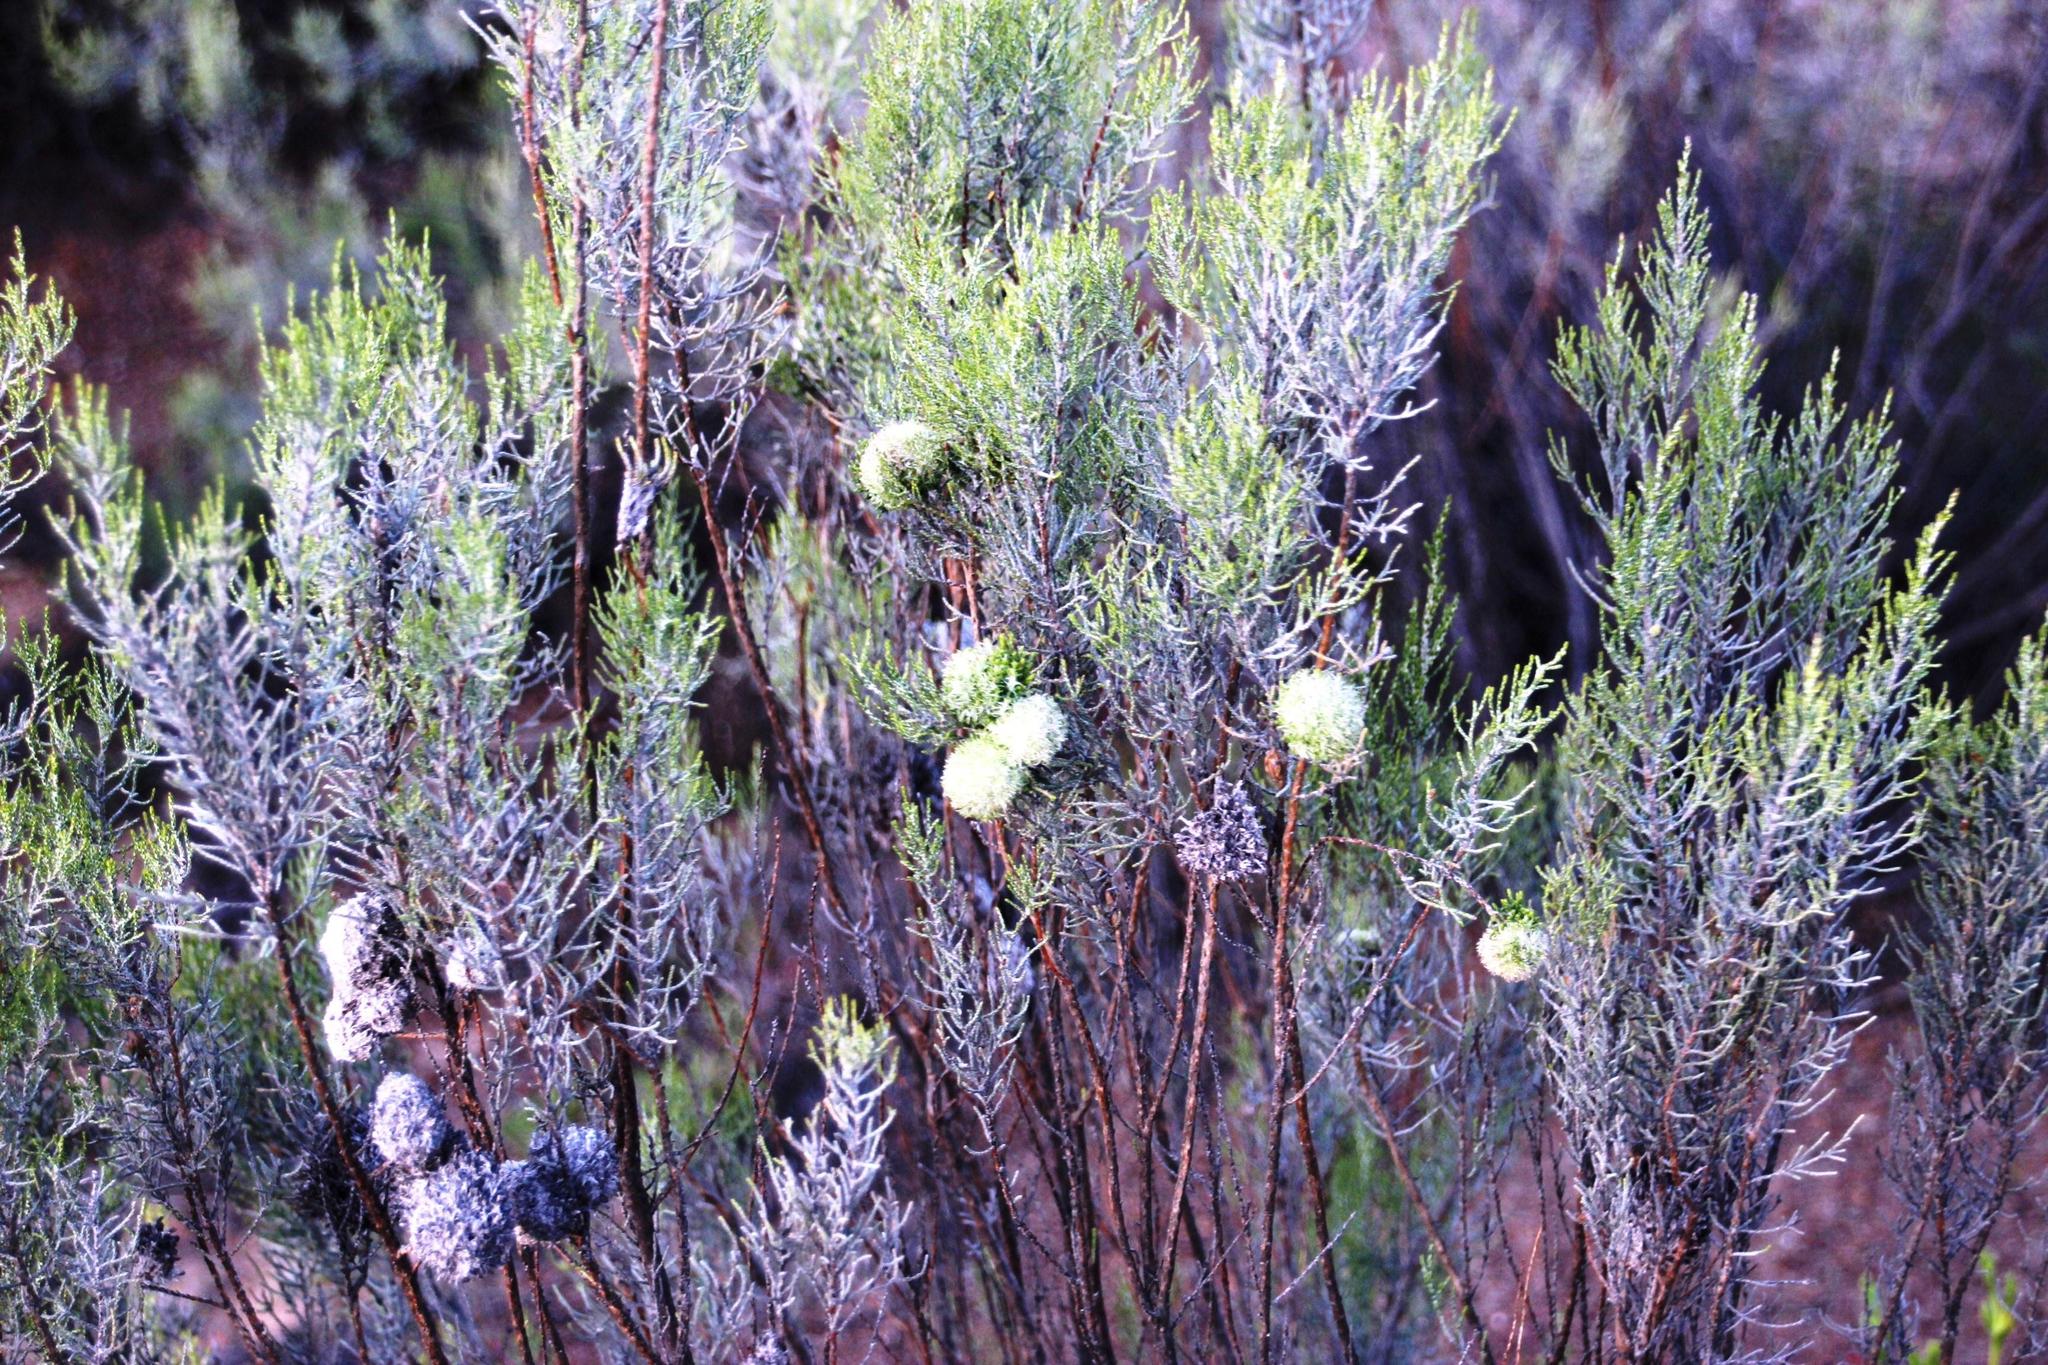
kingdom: Plantae
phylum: Tracheophyta
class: Magnoliopsida
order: Asterales
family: Asteraceae
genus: Dicerothamnus
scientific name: Dicerothamnus rhinocerotis
